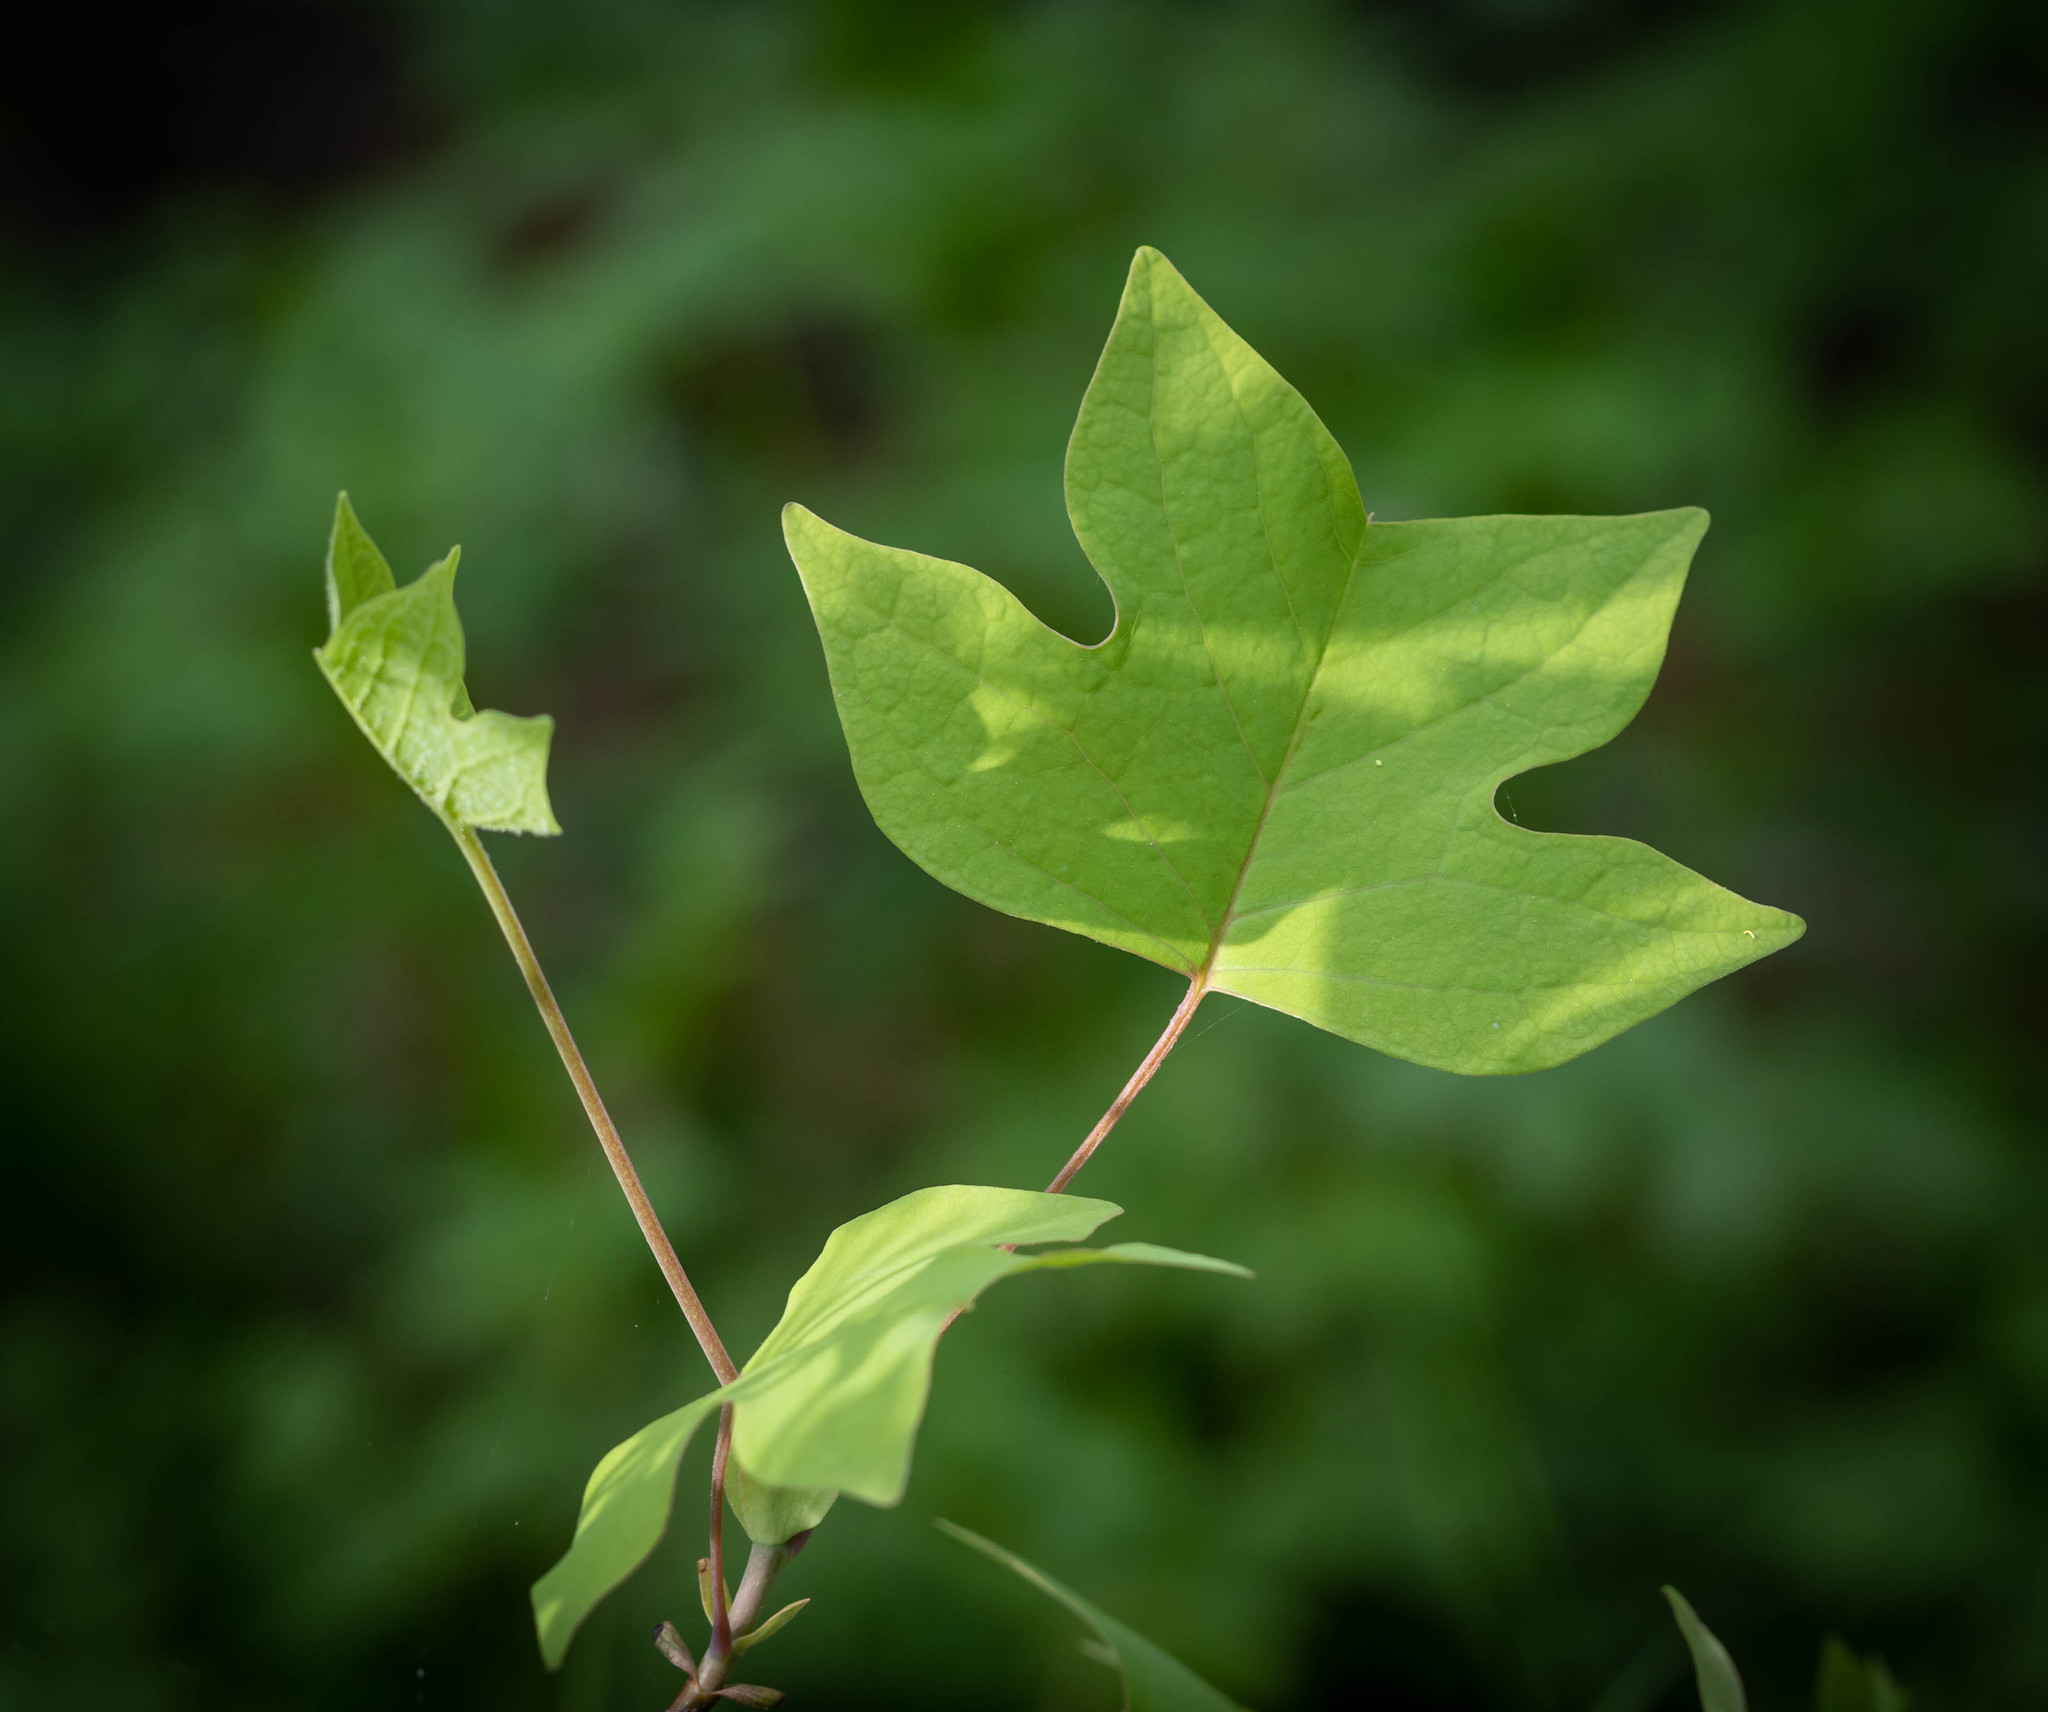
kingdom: Plantae
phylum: Tracheophyta
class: Magnoliopsida
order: Magnoliales
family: Magnoliaceae
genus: Liriodendron
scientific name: Liriodendron tulipifera
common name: Tulip tree
